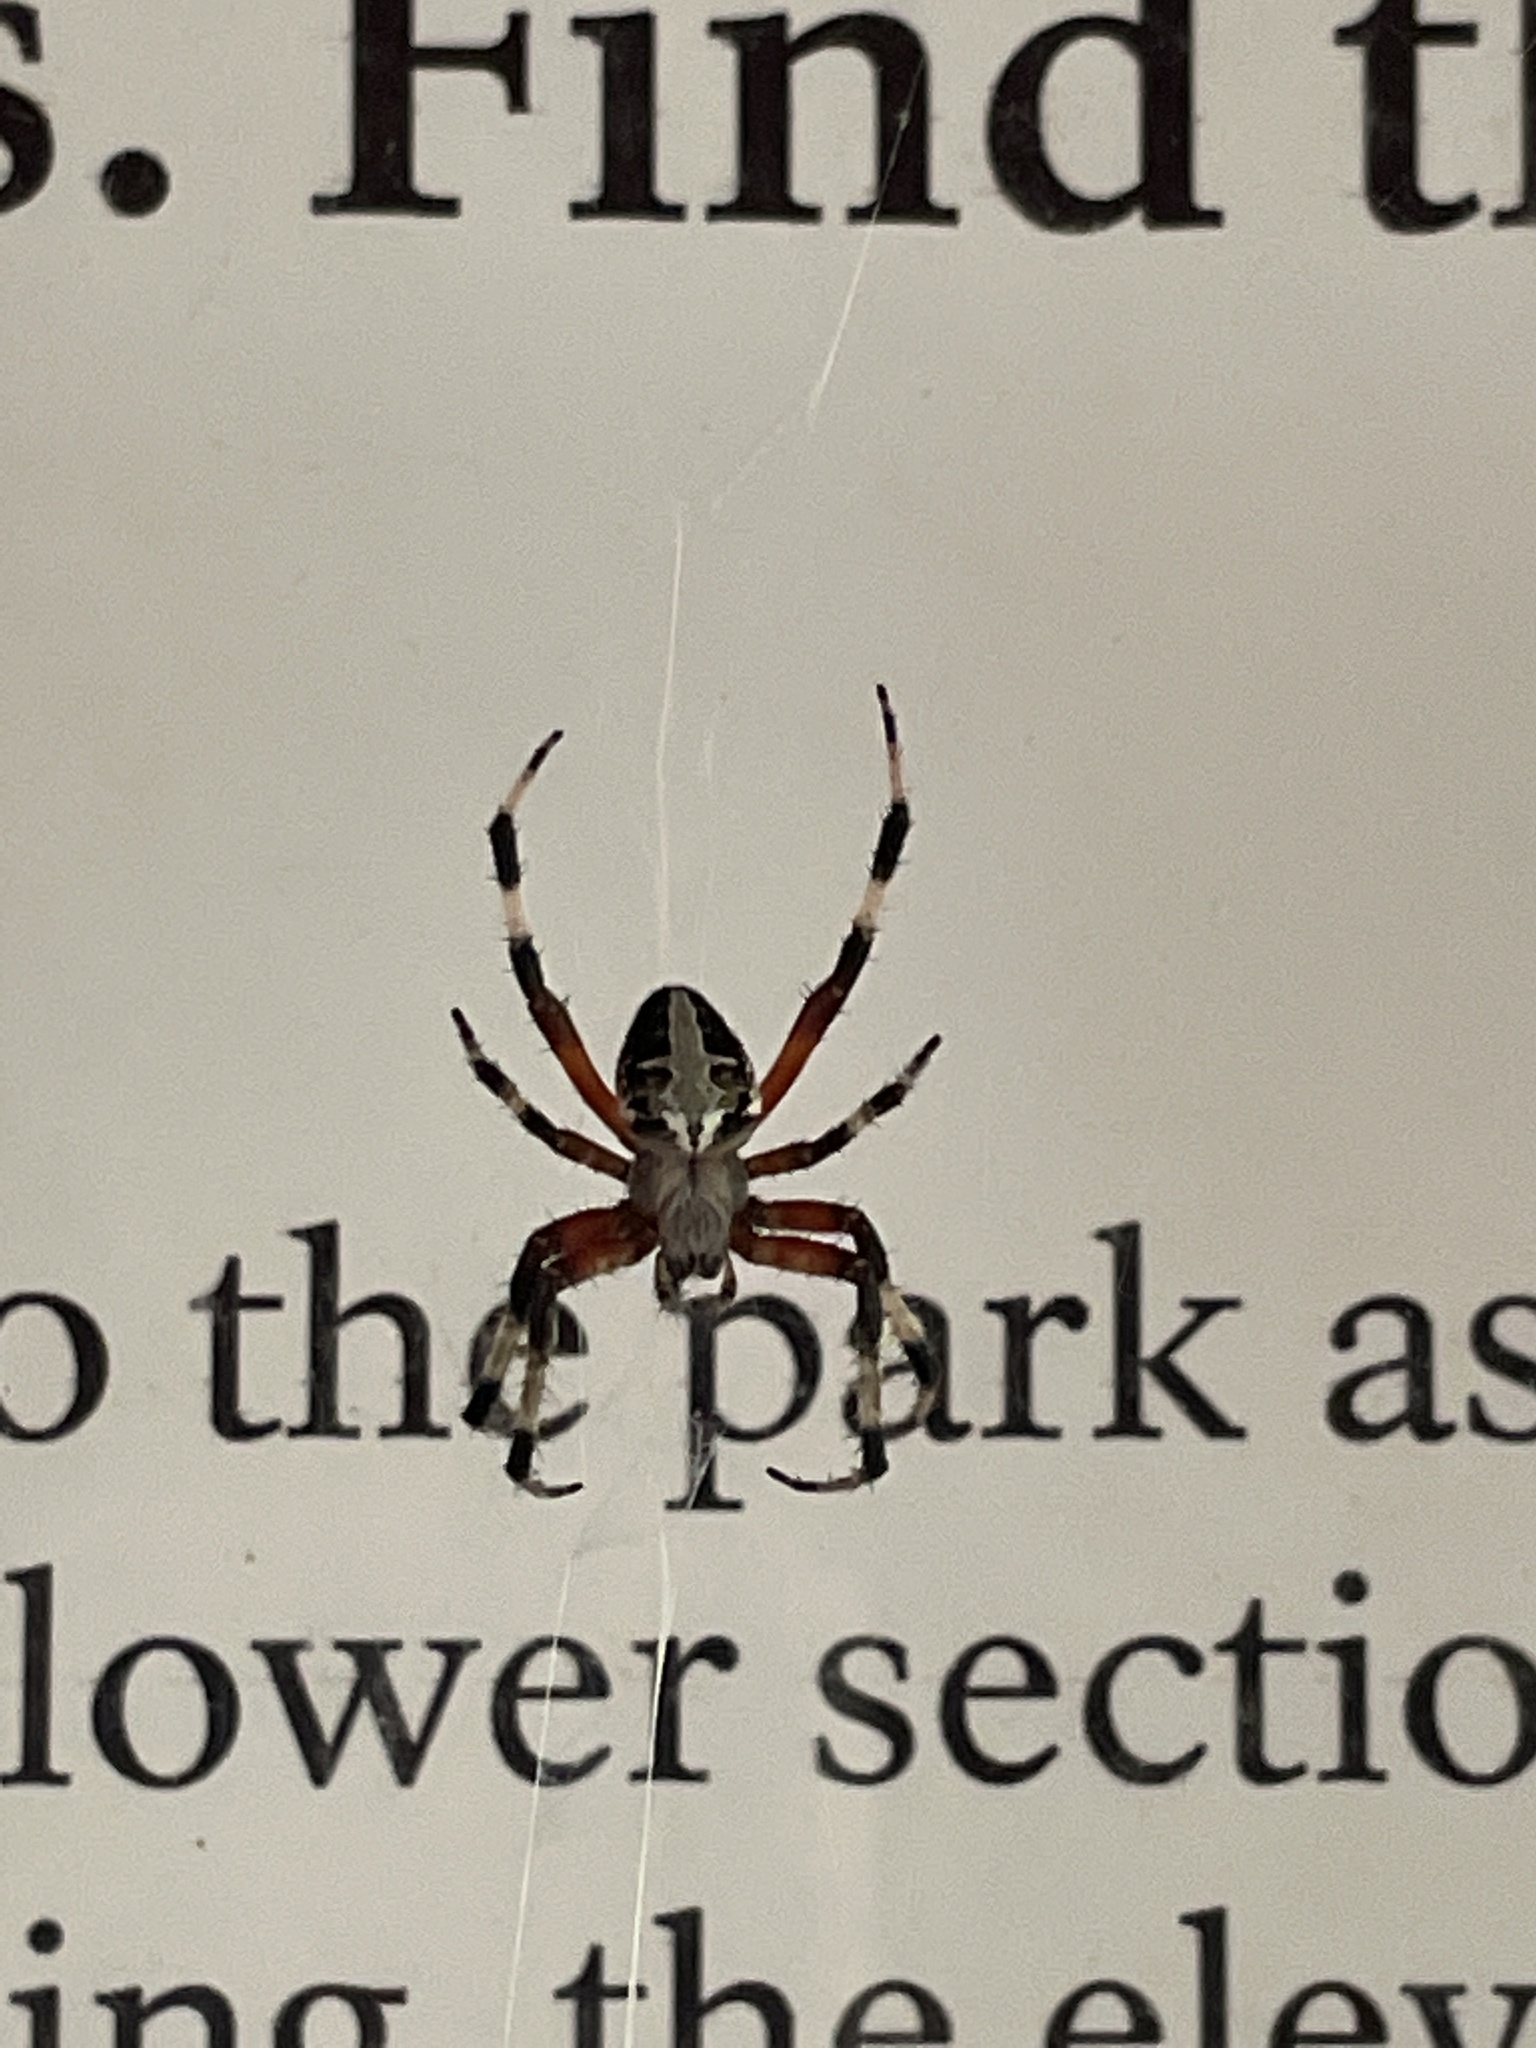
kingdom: Animalia
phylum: Arthropoda
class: Arachnida
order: Araneae
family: Araneidae
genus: Neoscona
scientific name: Neoscona domiciliorum
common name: Red-femured spotted orbweaver
